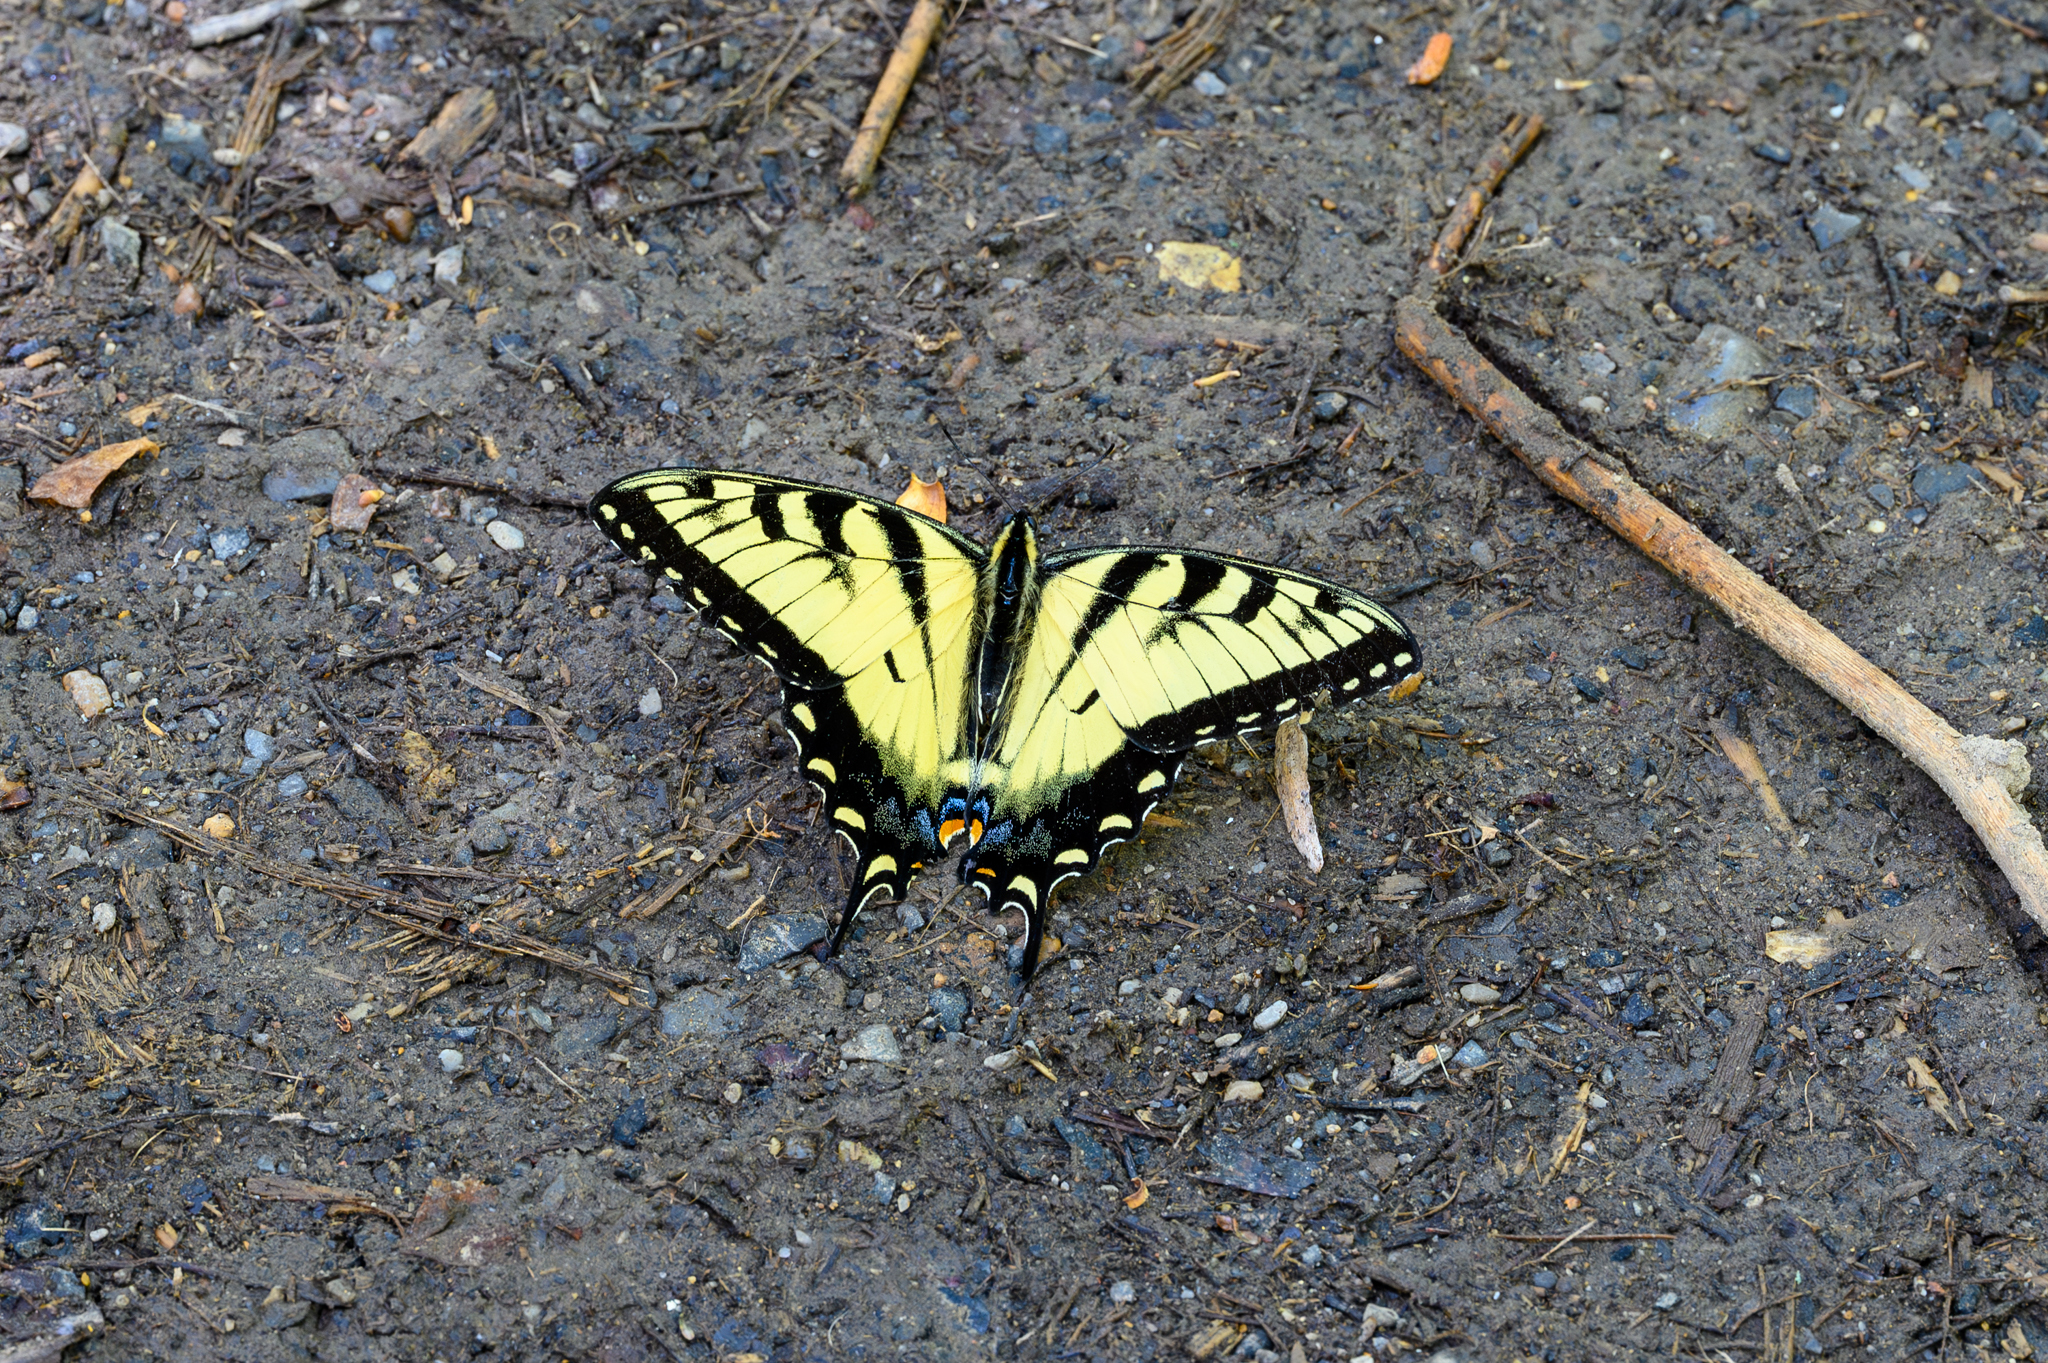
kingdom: Animalia
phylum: Arthropoda
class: Insecta
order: Lepidoptera
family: Papilionidae
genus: Papilio
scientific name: Papilio glaucus
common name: Tiger swallowtail
